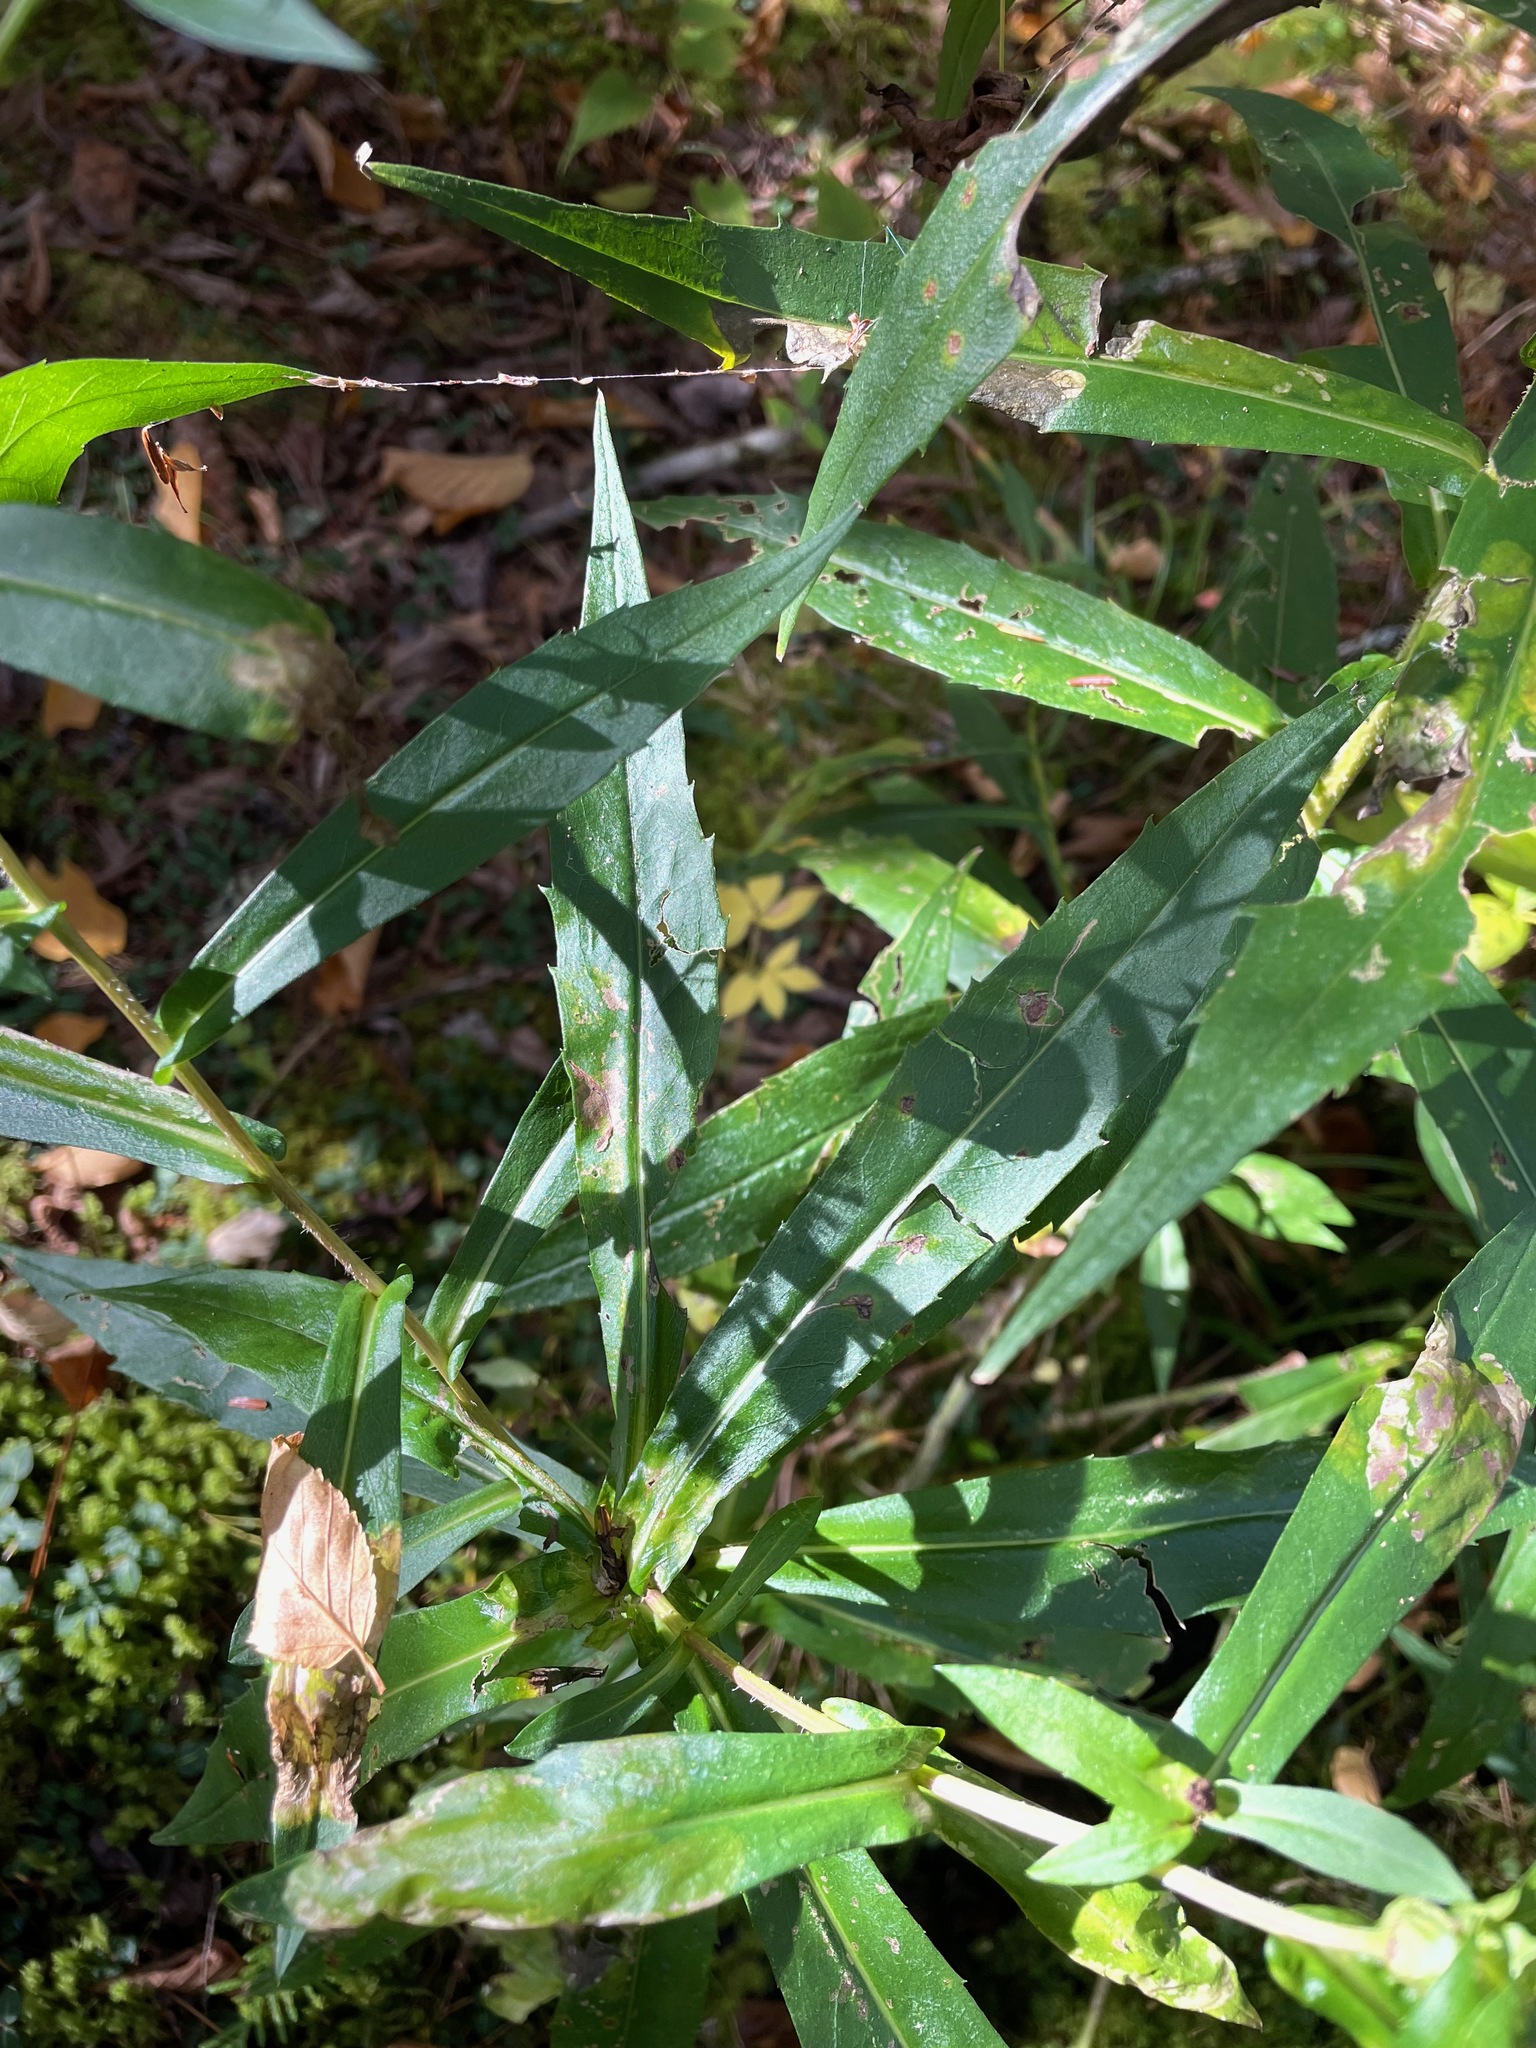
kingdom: Plantae
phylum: Tracheophyta
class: Magnoliopsida
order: Asterales
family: Asteraceae
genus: Symphyotrichum
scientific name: Symphyotrichum puniceum
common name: Bog aster
